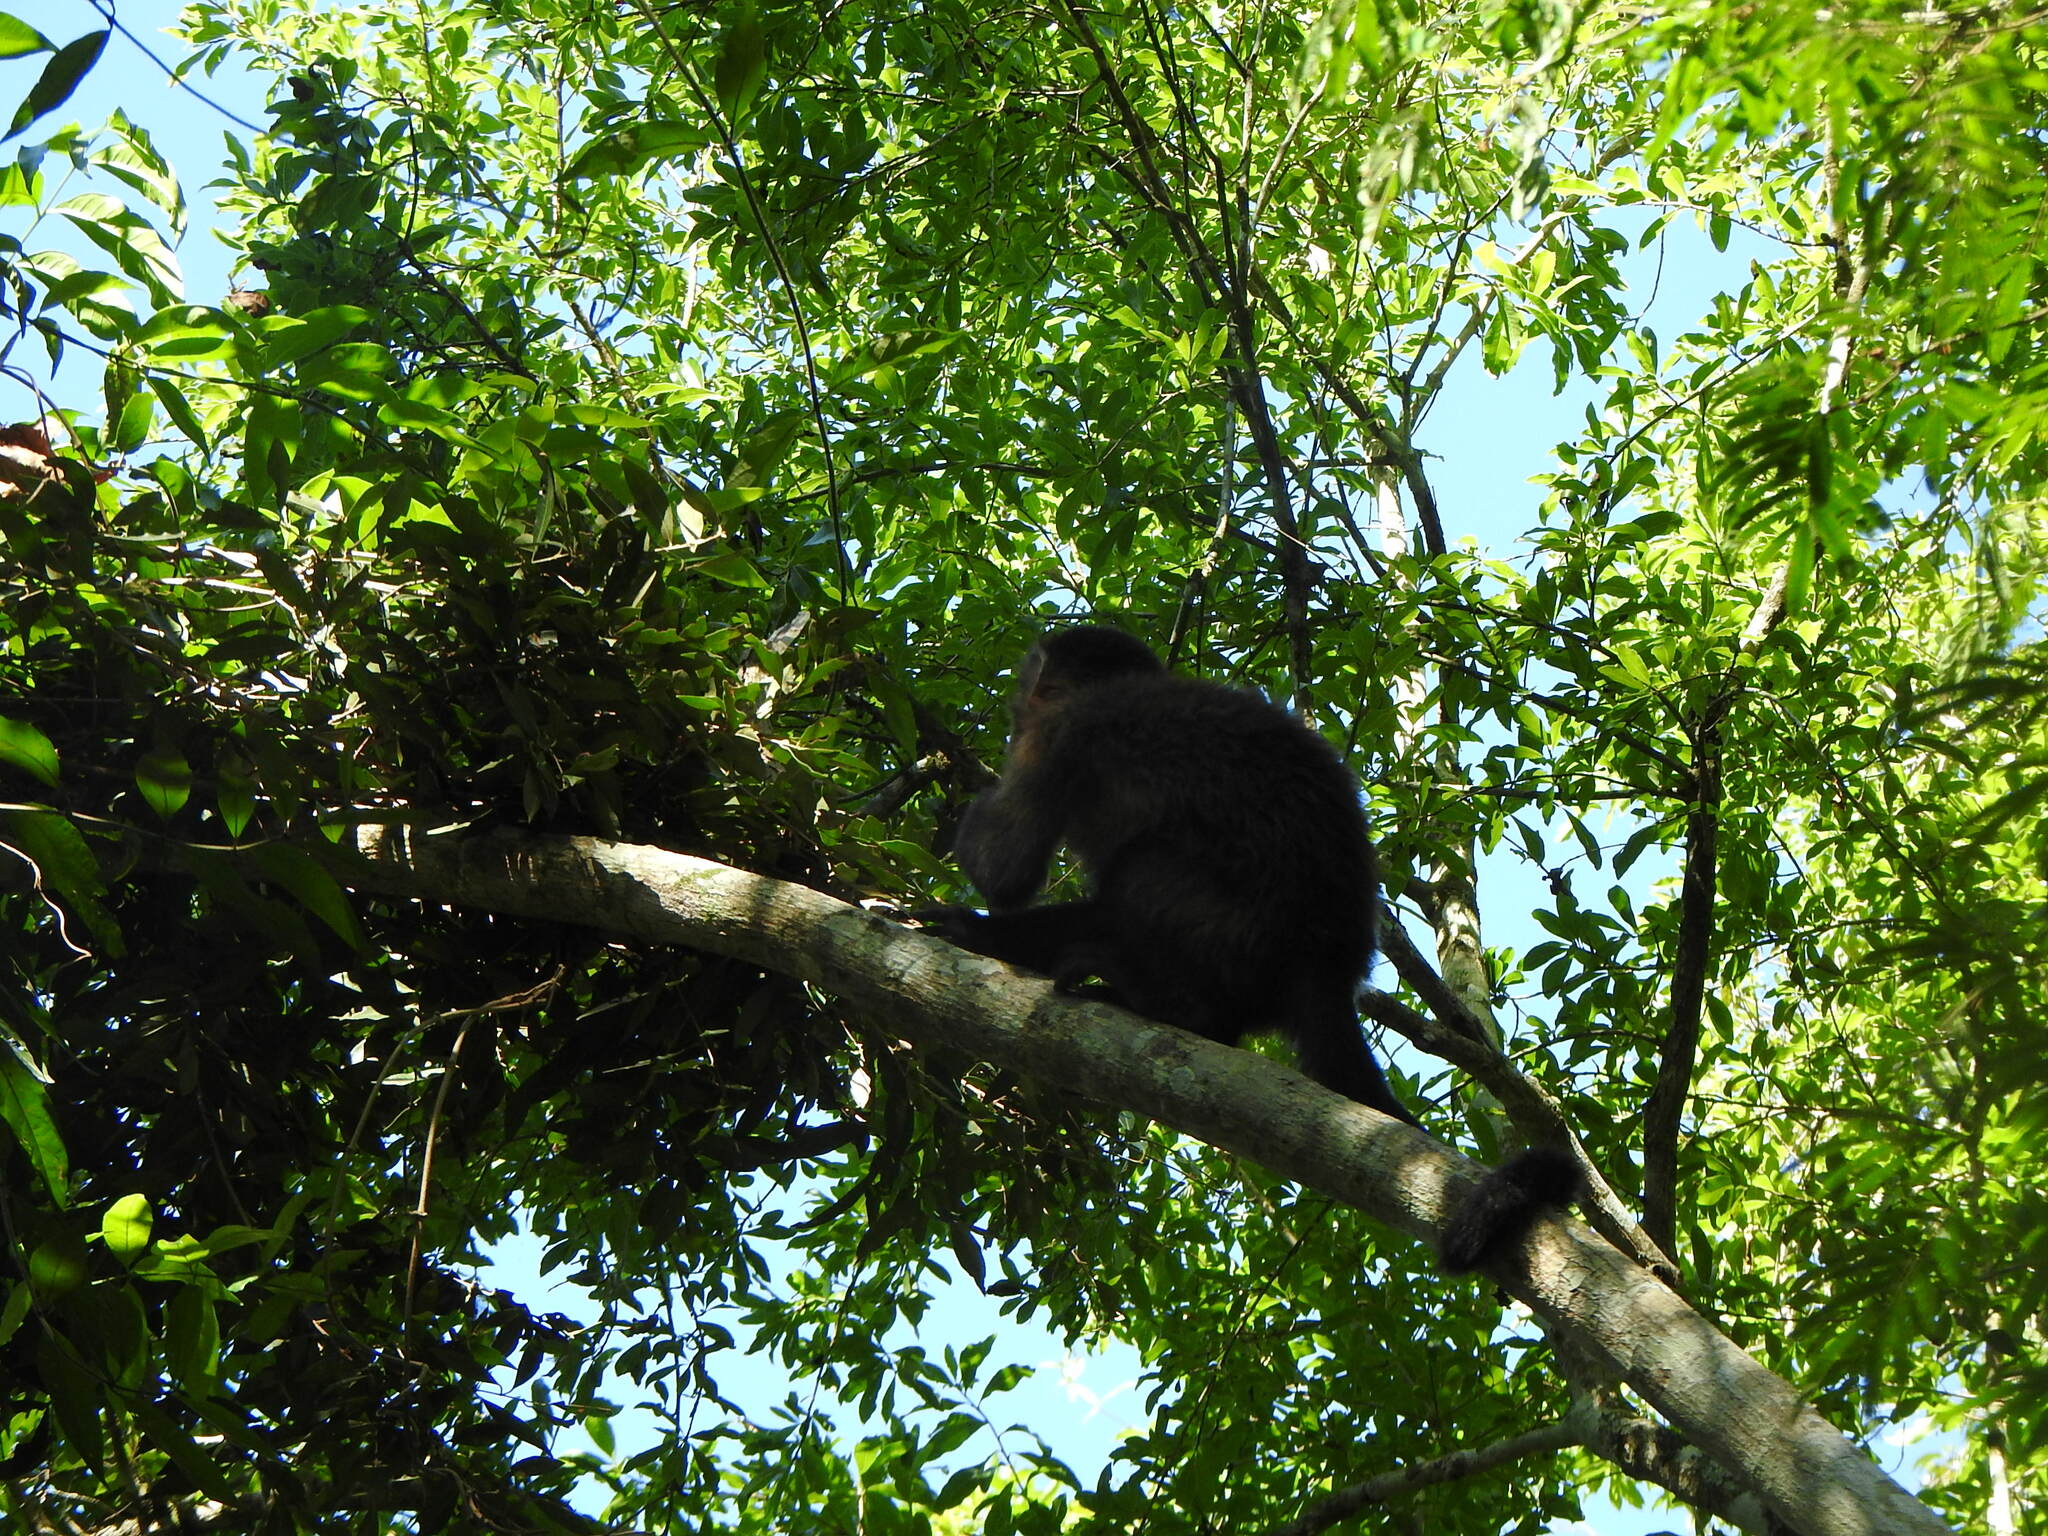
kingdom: Animalia
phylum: Chordata
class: Mammalia
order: Primates
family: Cebidae
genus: Sapajus
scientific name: Sapajus nigritus
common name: Black capuchin
